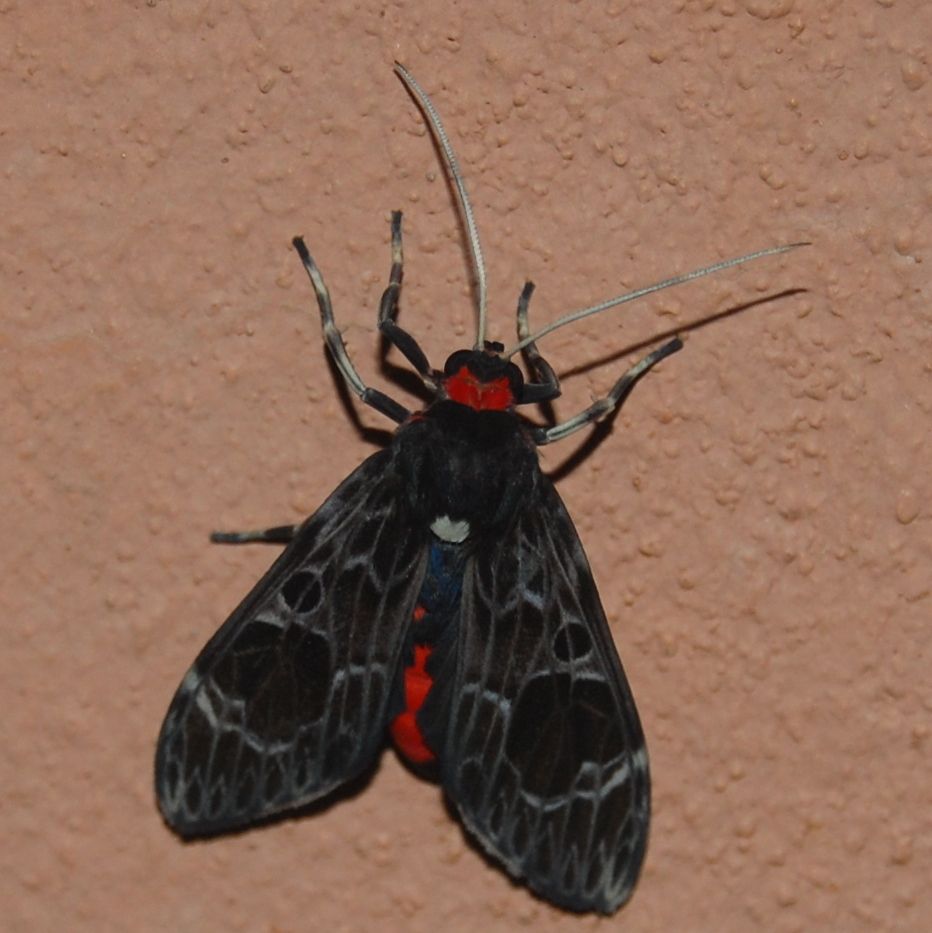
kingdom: Animalia
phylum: Arthropoda
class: Insecta
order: Lepidoptera
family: Erebidae
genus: Eucereon
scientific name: Eucereon chalcodon
